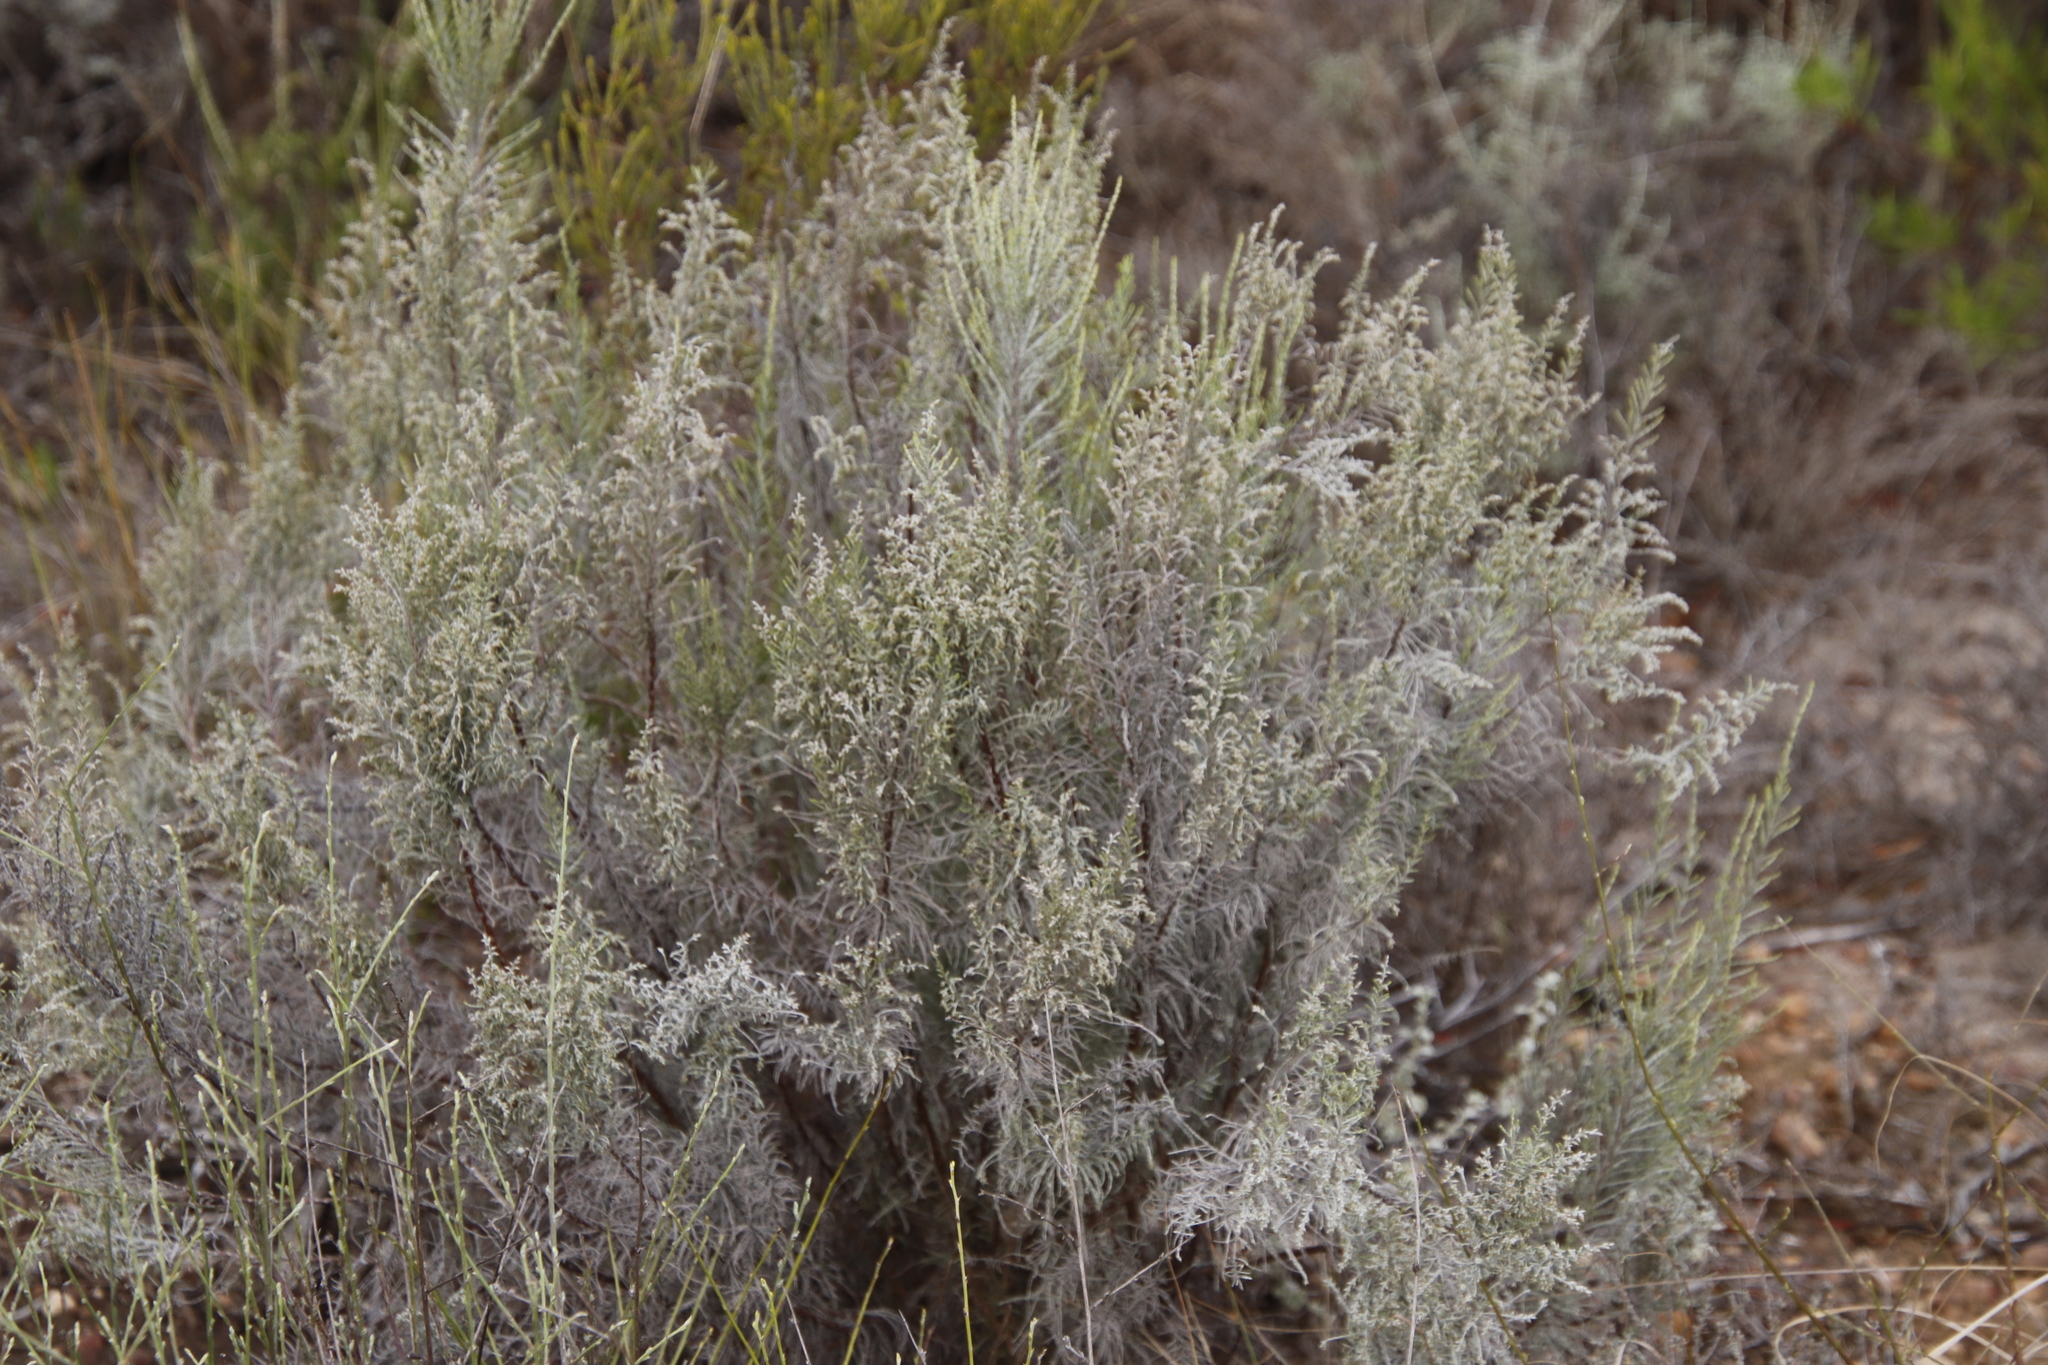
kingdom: Plantae
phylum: Tracheophyta
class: Magnoliopsida
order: Asterales
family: Asteraceae
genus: Dicerothamnus
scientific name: Dicerothamnus rhinocerotis
